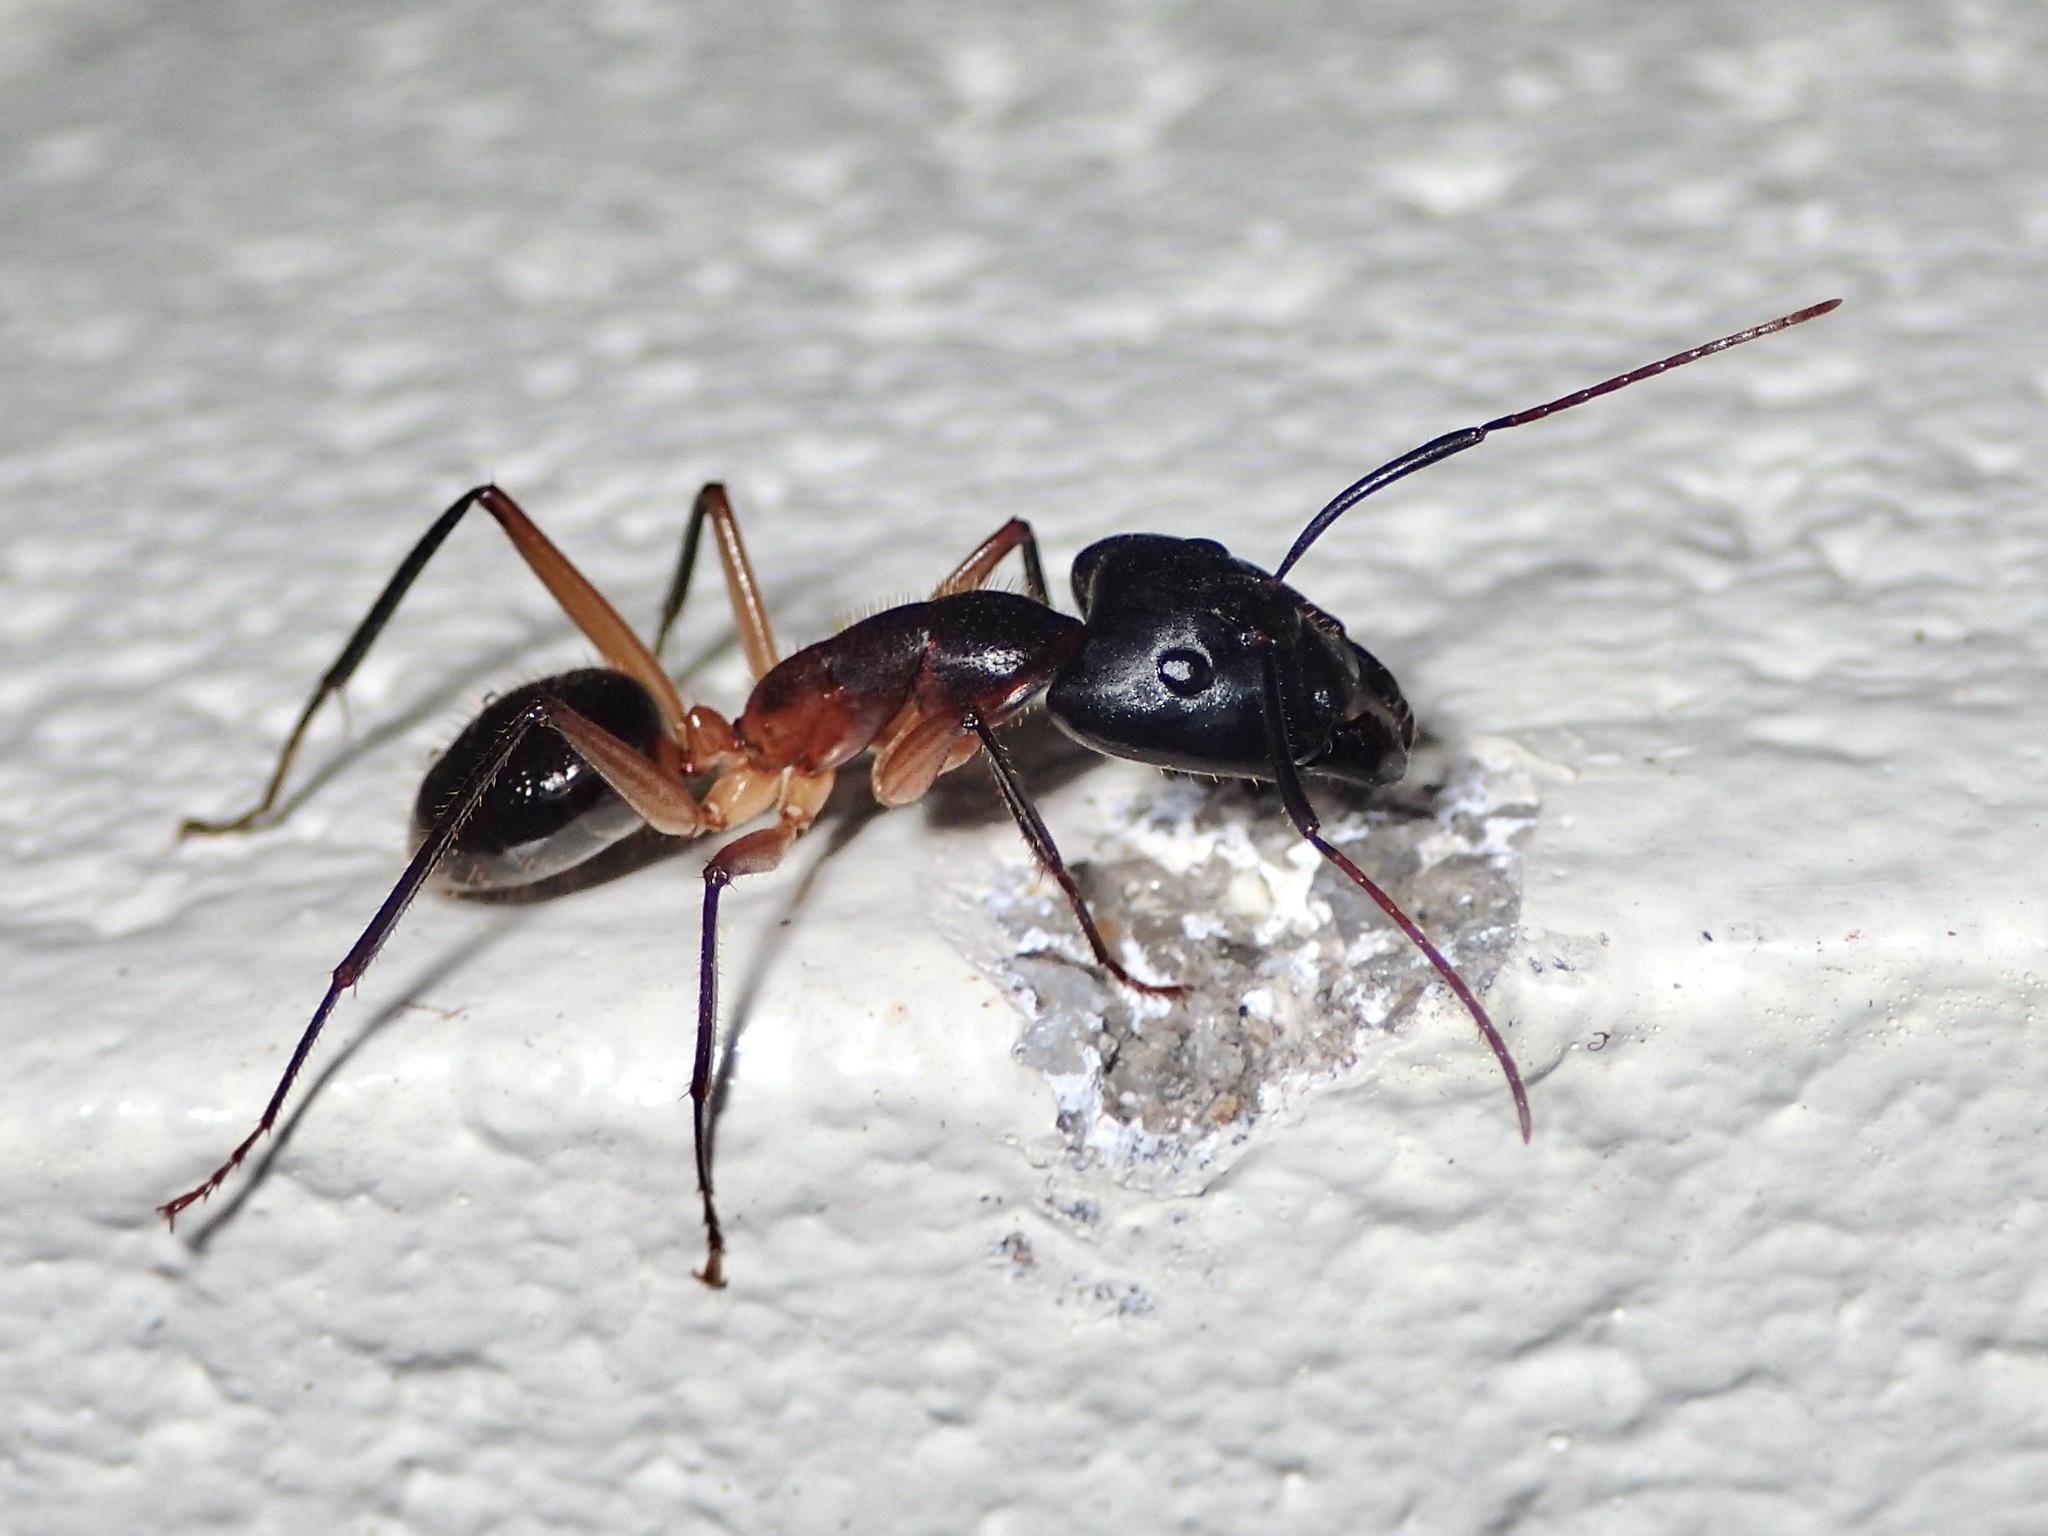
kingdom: Animalia
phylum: Arthropoda
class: Insecta
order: Hymenoptera
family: Formicidae
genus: Camponotus
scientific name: Camponotus
